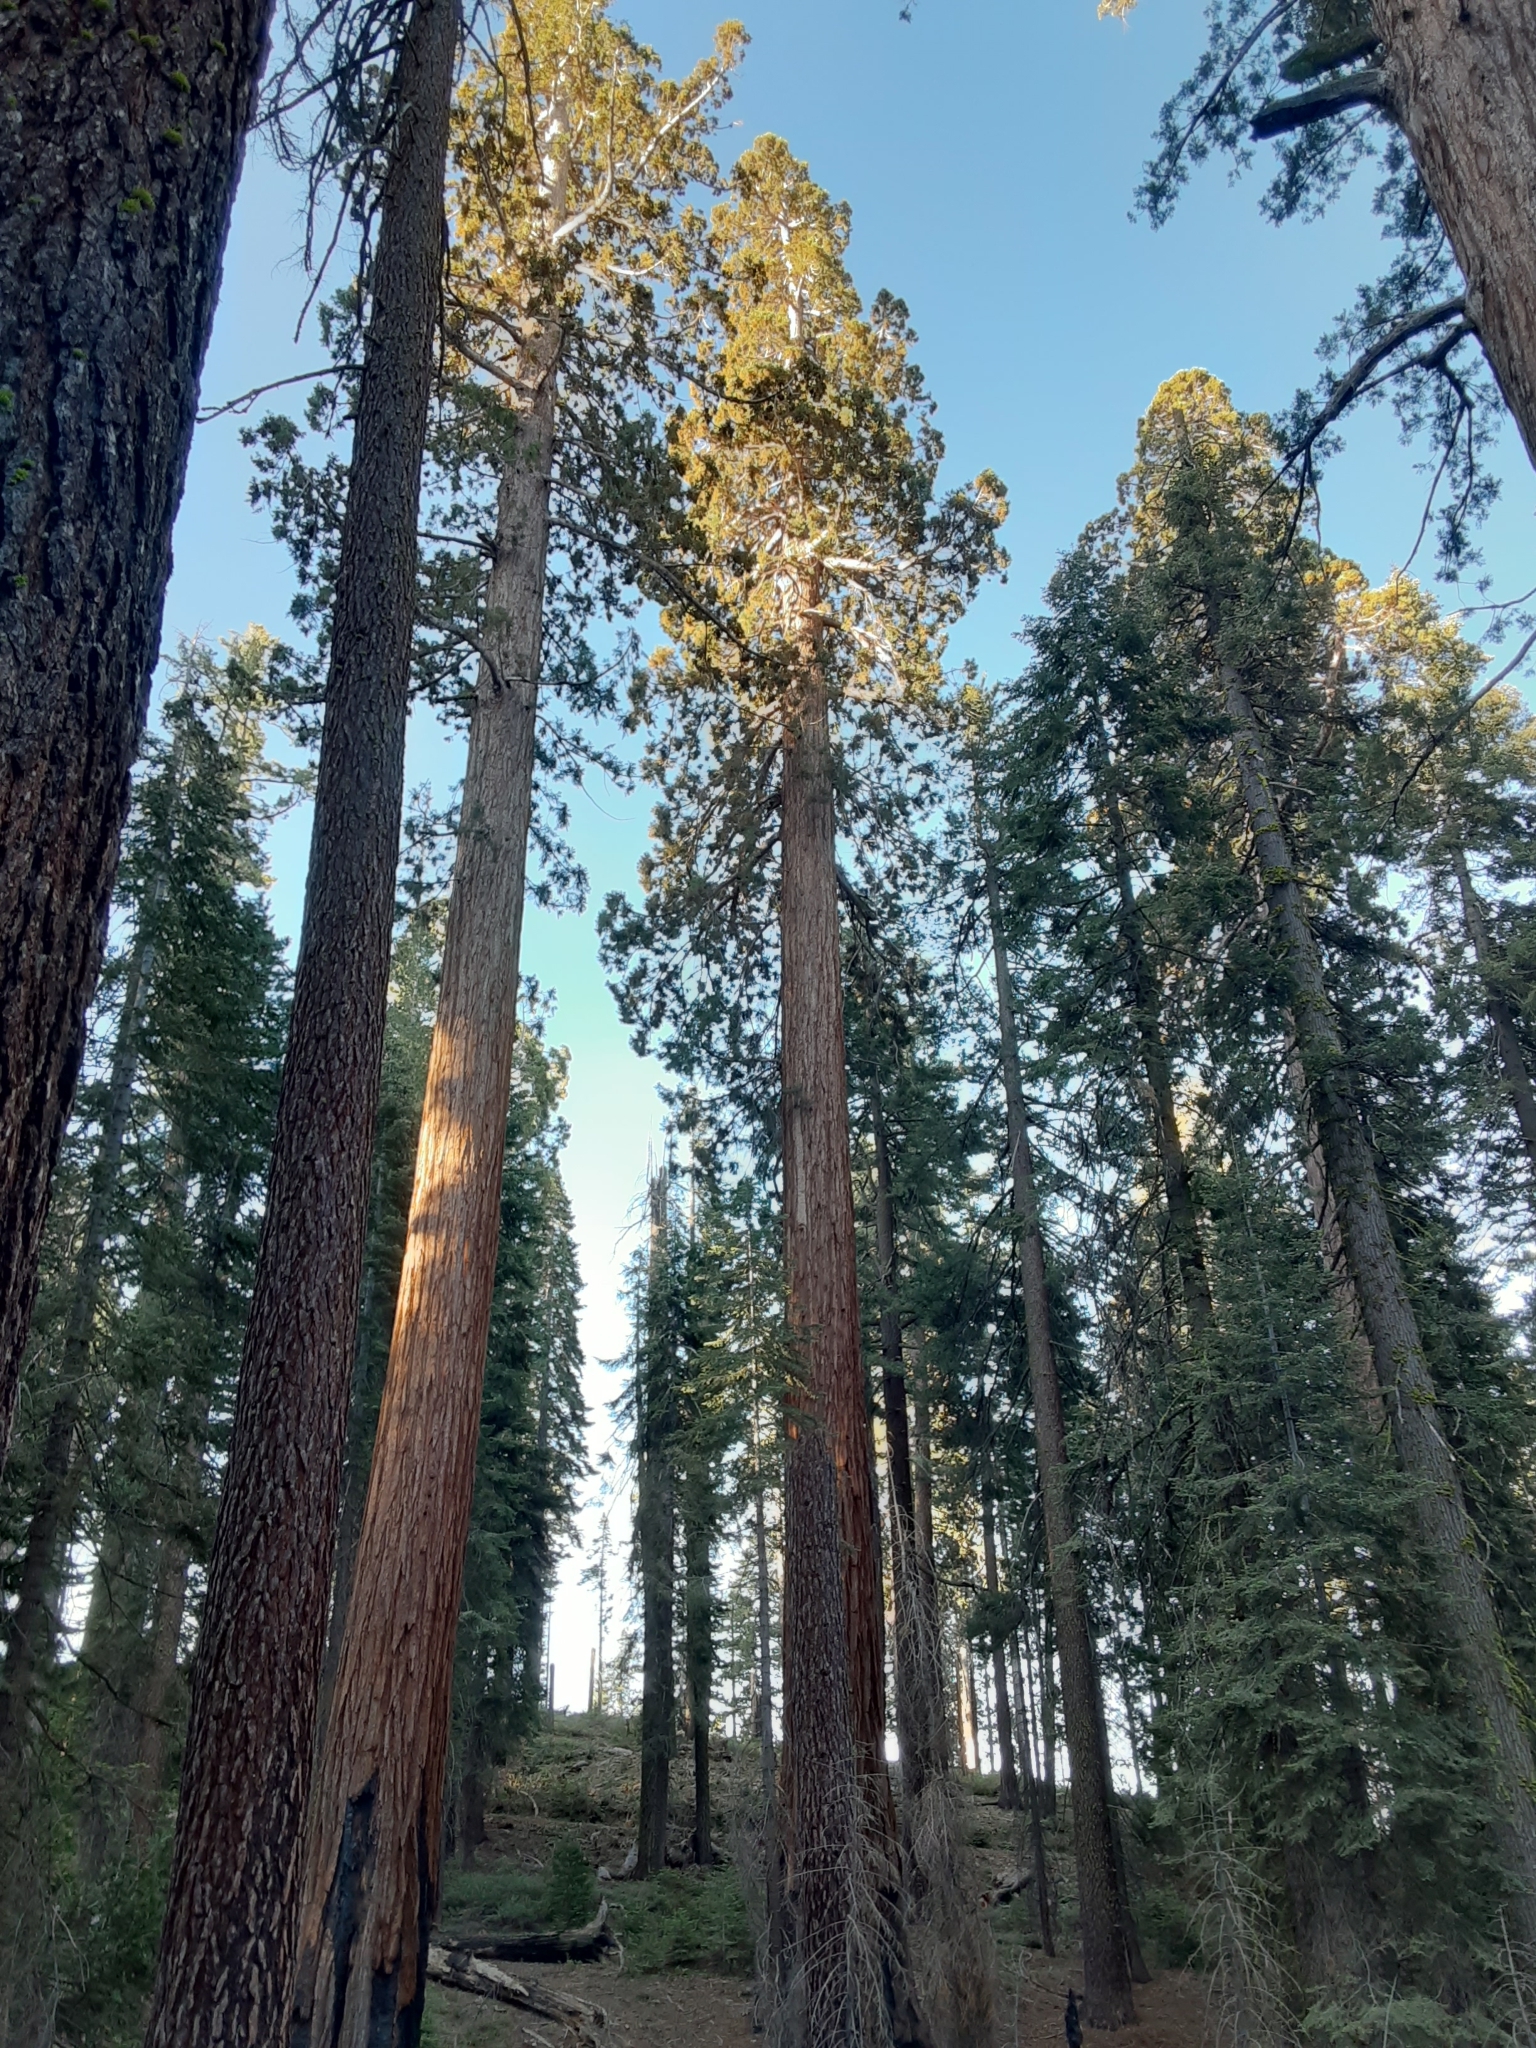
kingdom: Plantae
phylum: Tracheophyta
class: Pinopsida
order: Pinales
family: Cupressaceae
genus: Sequoiadendron
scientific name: Sequoiadendron giganteum
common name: Wellingtonia
